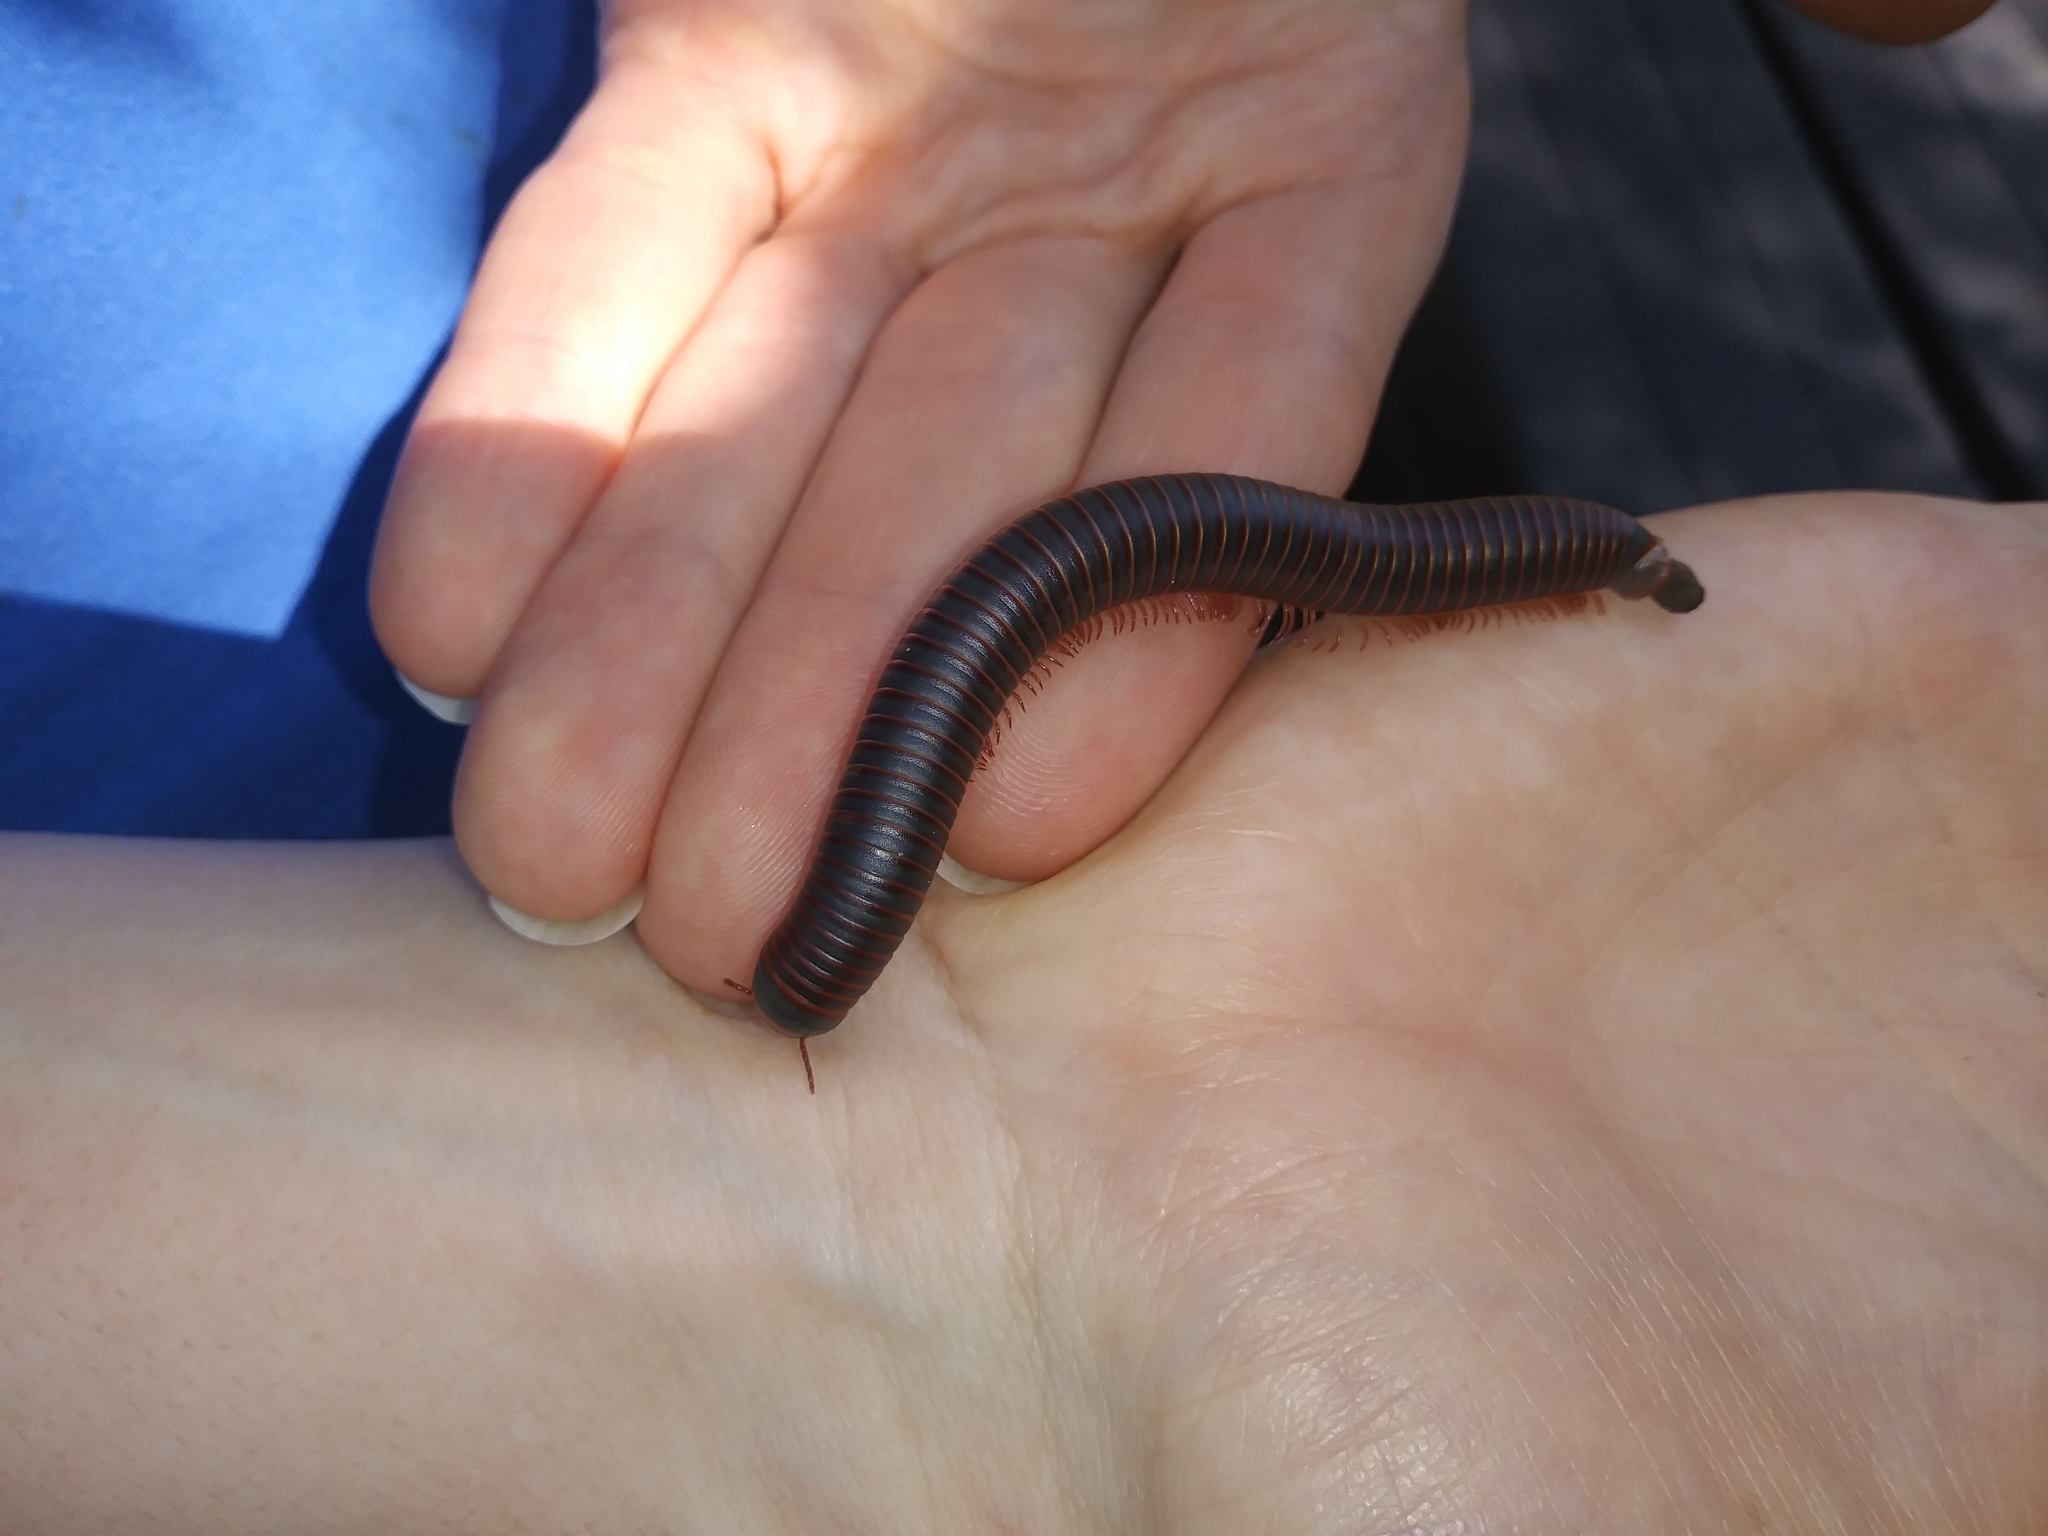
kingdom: Animalia
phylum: Arthropoda
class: Diplopoda
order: Spirobolida
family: Spirobolidae
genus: Narceus
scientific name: Narceus
